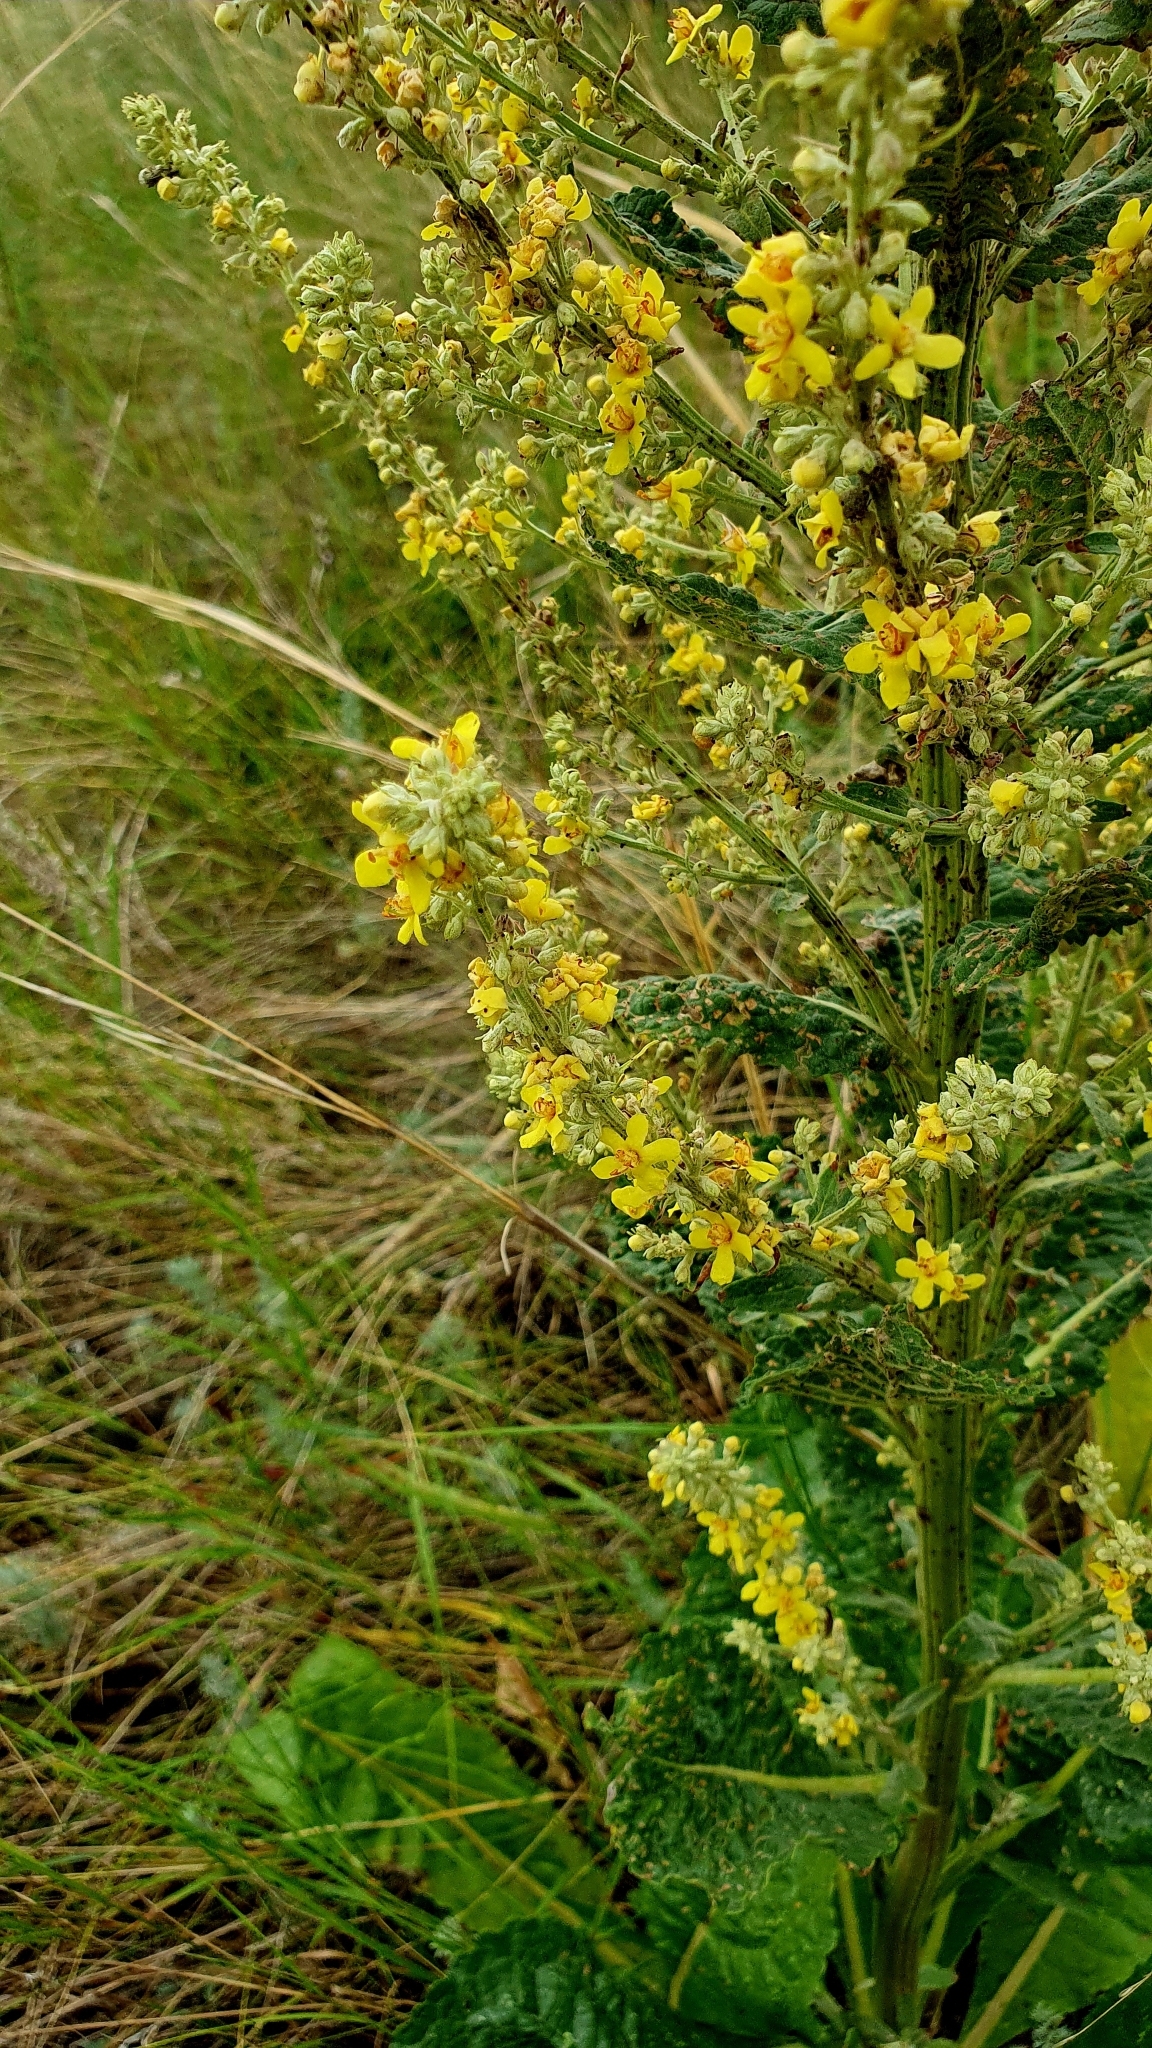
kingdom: Plantae
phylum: Tracheophyta
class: Magnoliopsida
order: Lamiales
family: Scrophulariaceae
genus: Verbascum
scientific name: Verbascum lychnitis
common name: White mullein
